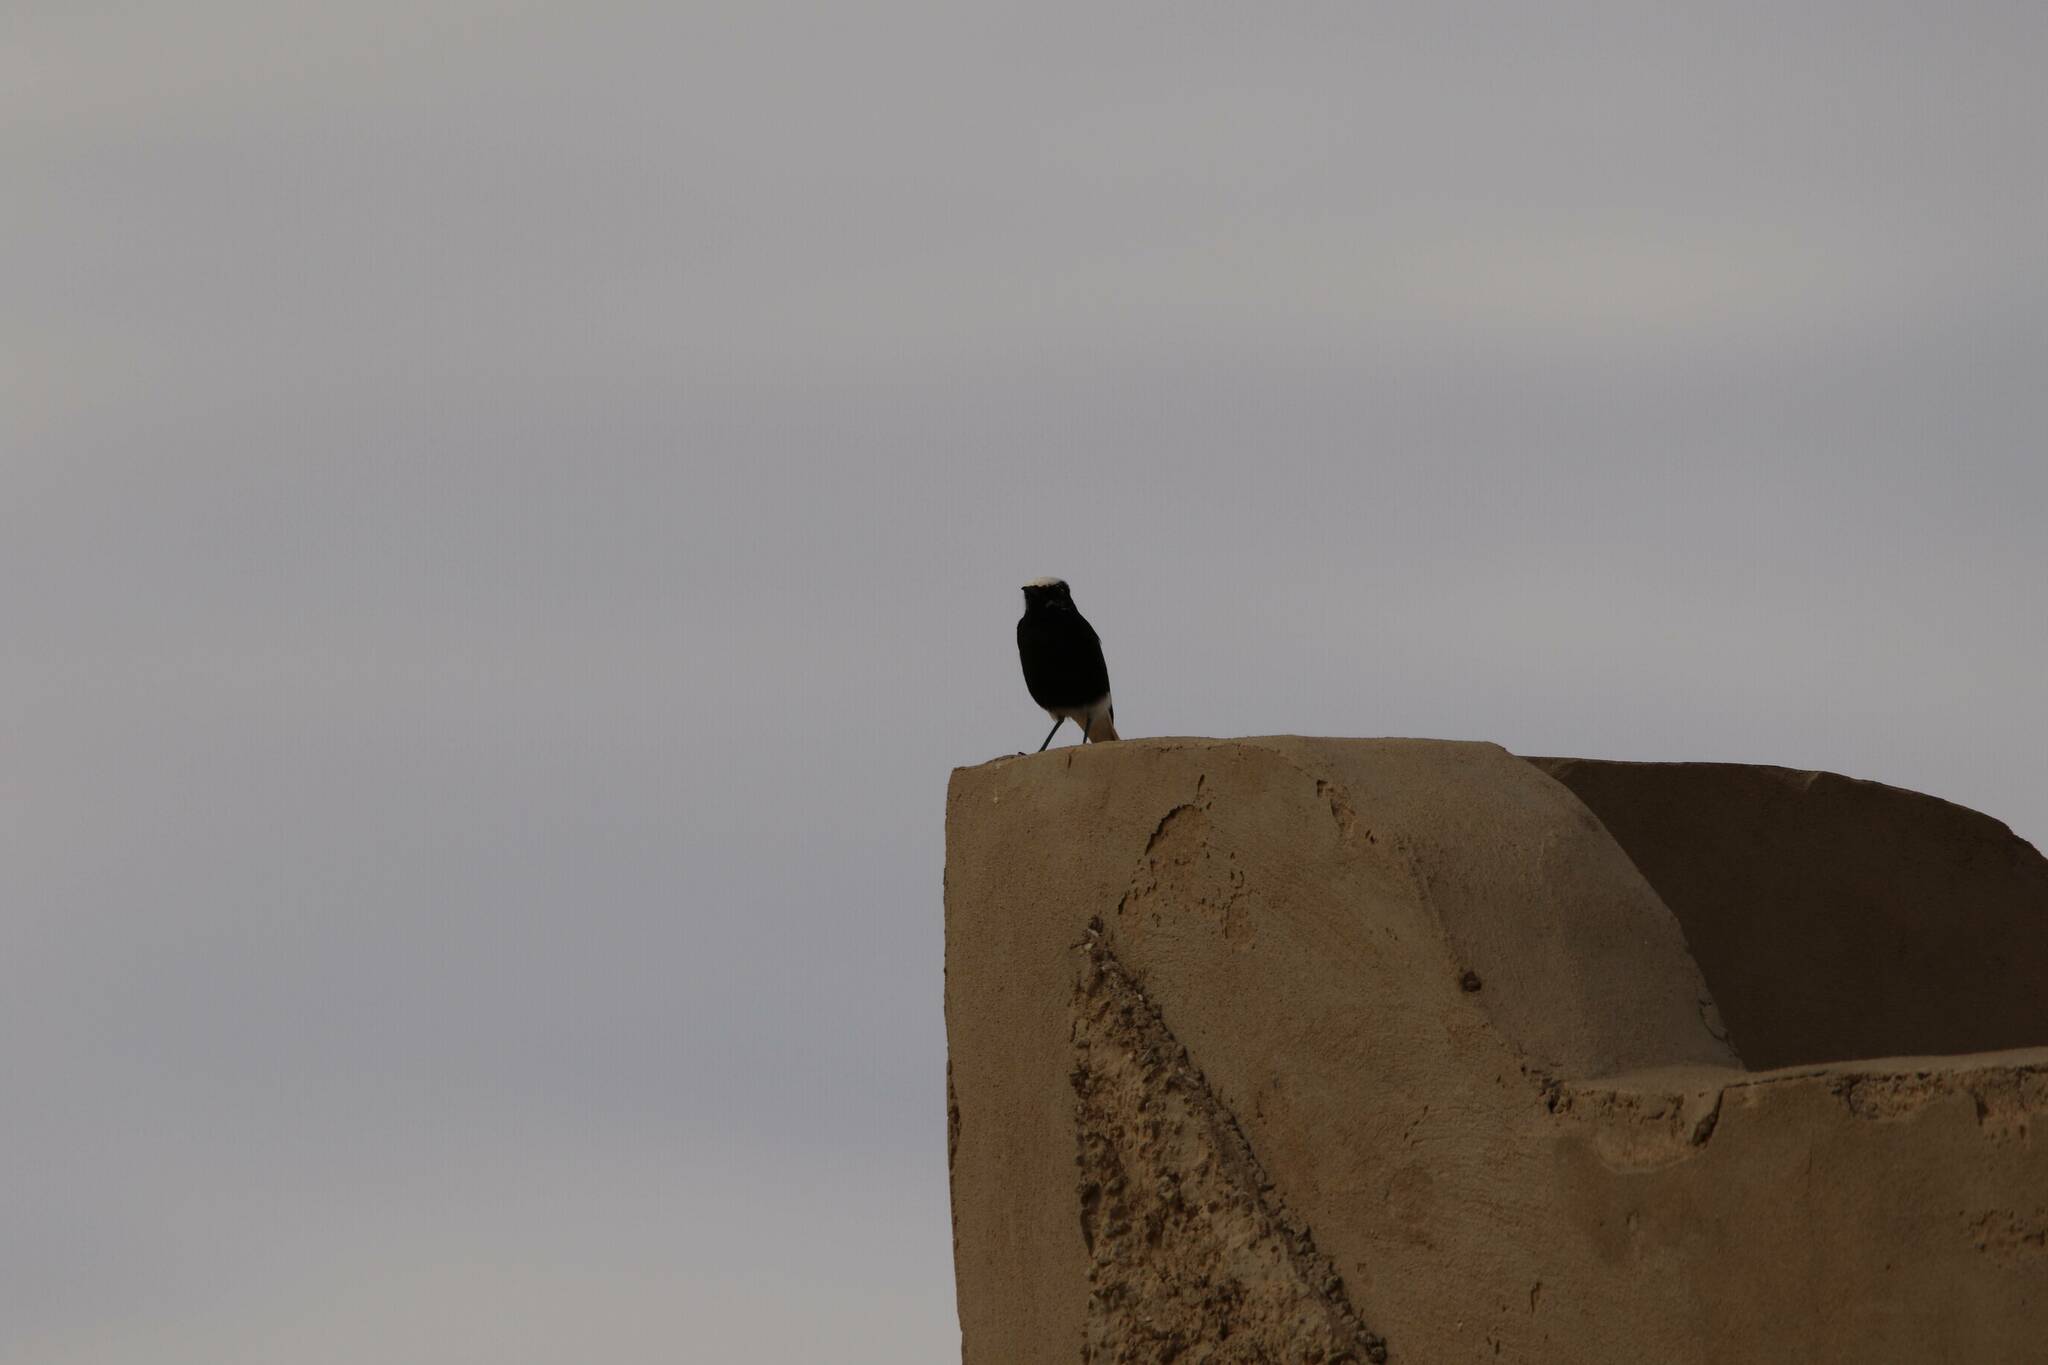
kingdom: Animalia
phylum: Chordata
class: Aves
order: Passeriformes
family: Muscicapidae
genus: Oenanthe
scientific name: Oenanthe leucopyga
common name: White-crowned wheatear
